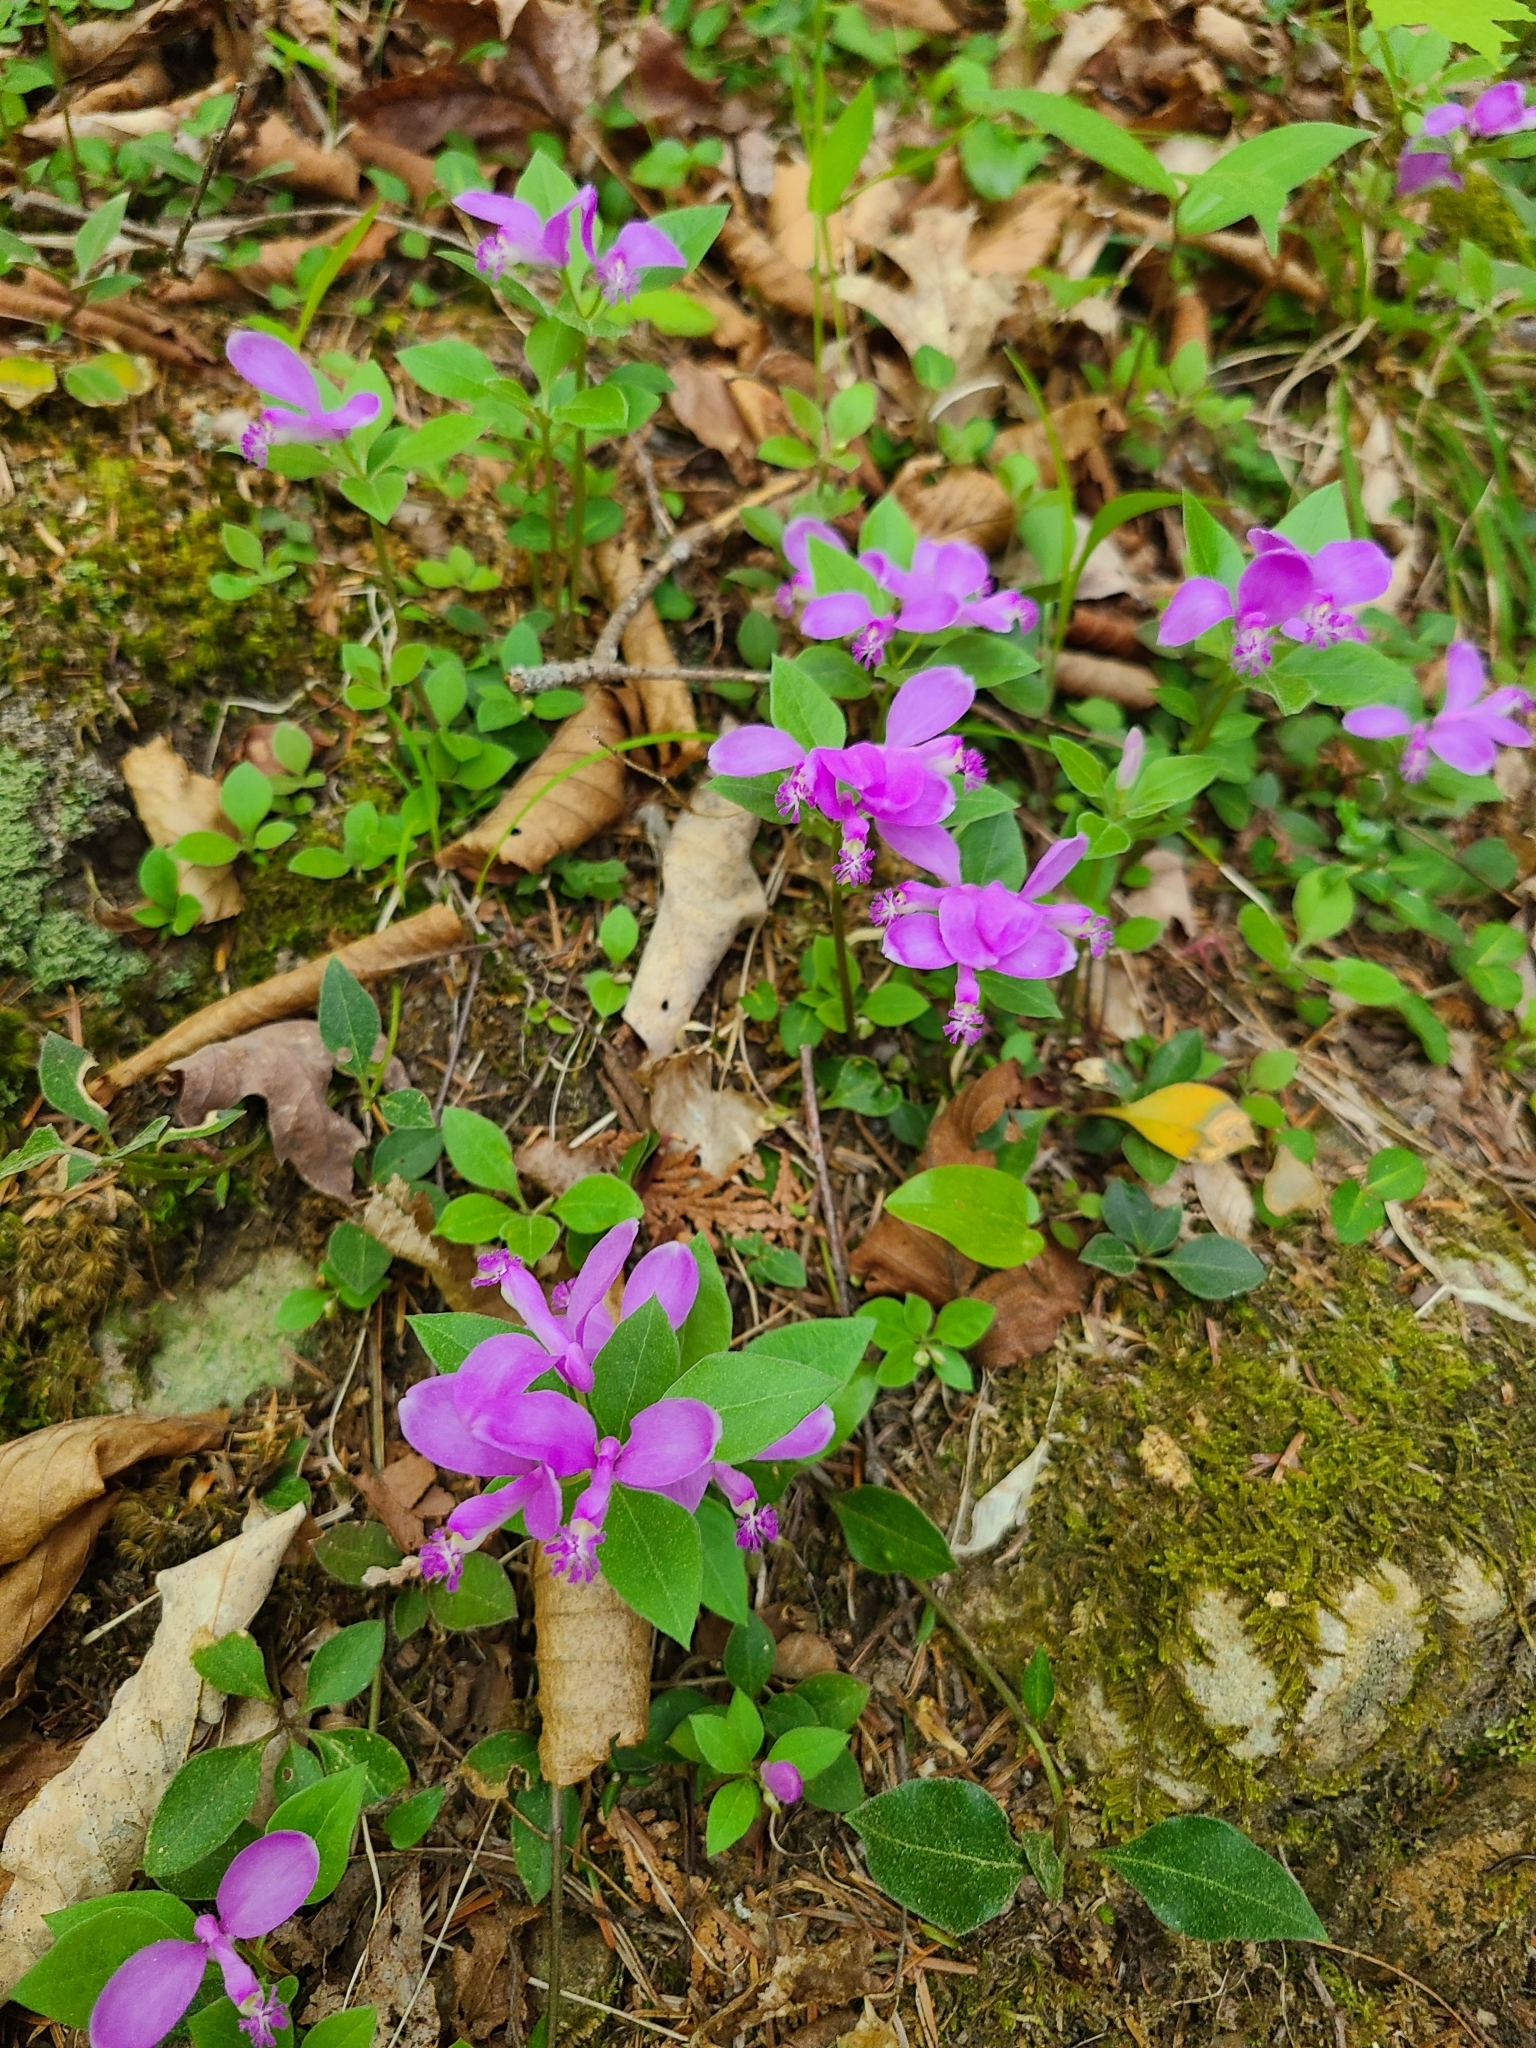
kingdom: Plantae
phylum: Tracheophyta
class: Magnoliopsida
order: Fabales
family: Polygalaceae
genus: Polygaloides
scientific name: Polygaloides paucifolia
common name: Bird-on-the-wing
